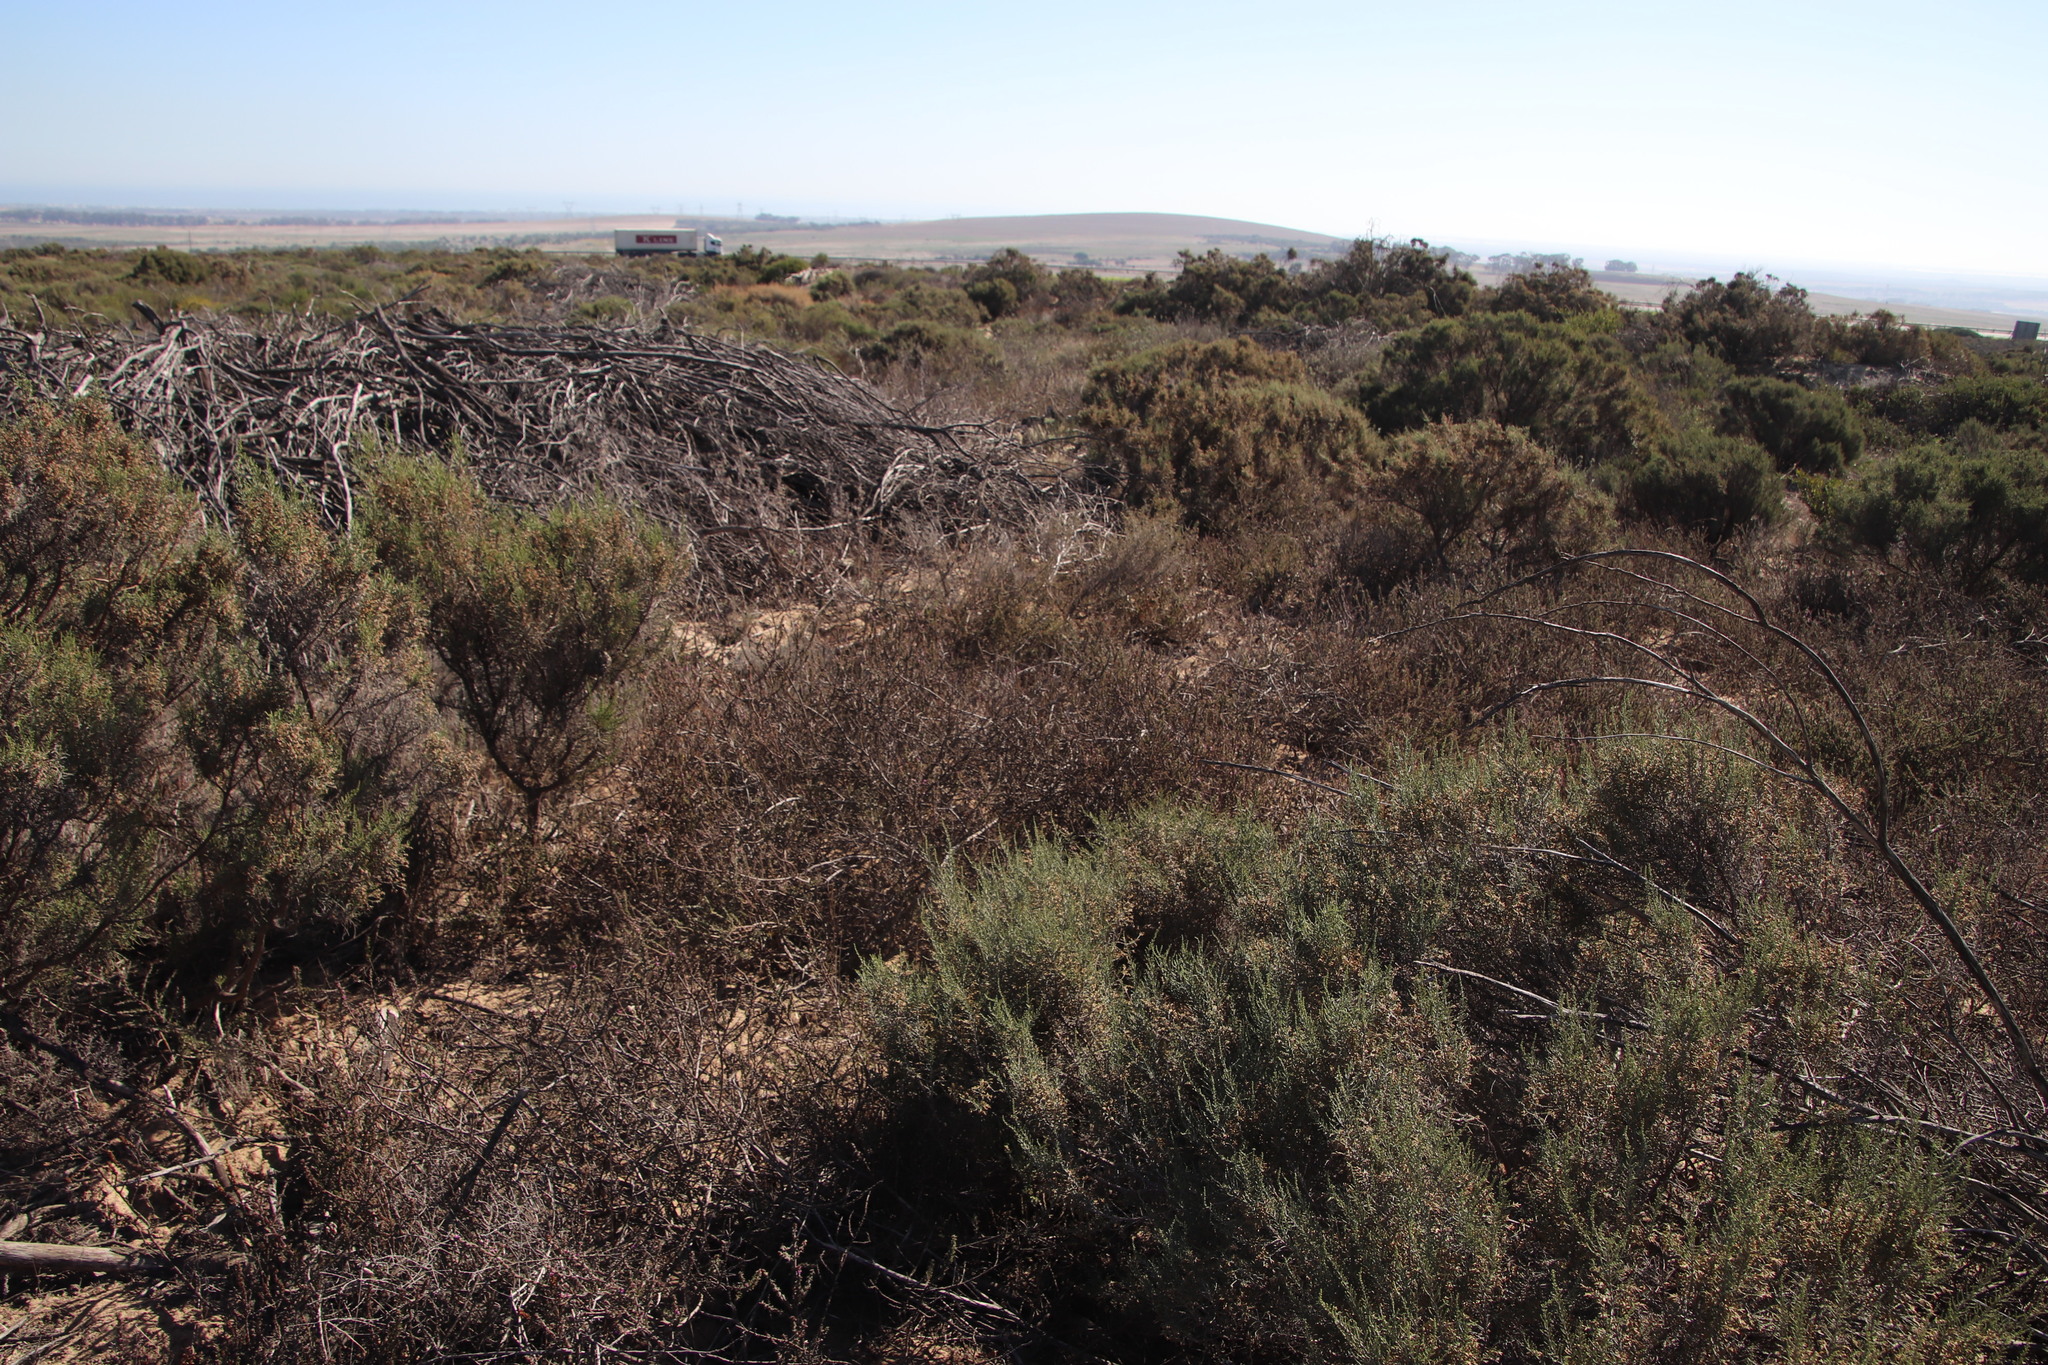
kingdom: Plantae
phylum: Tracheophyta
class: Magnoliopsida
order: Fabales
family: Polygalaceae
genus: Muraltia
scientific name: Muraltia dumosa
